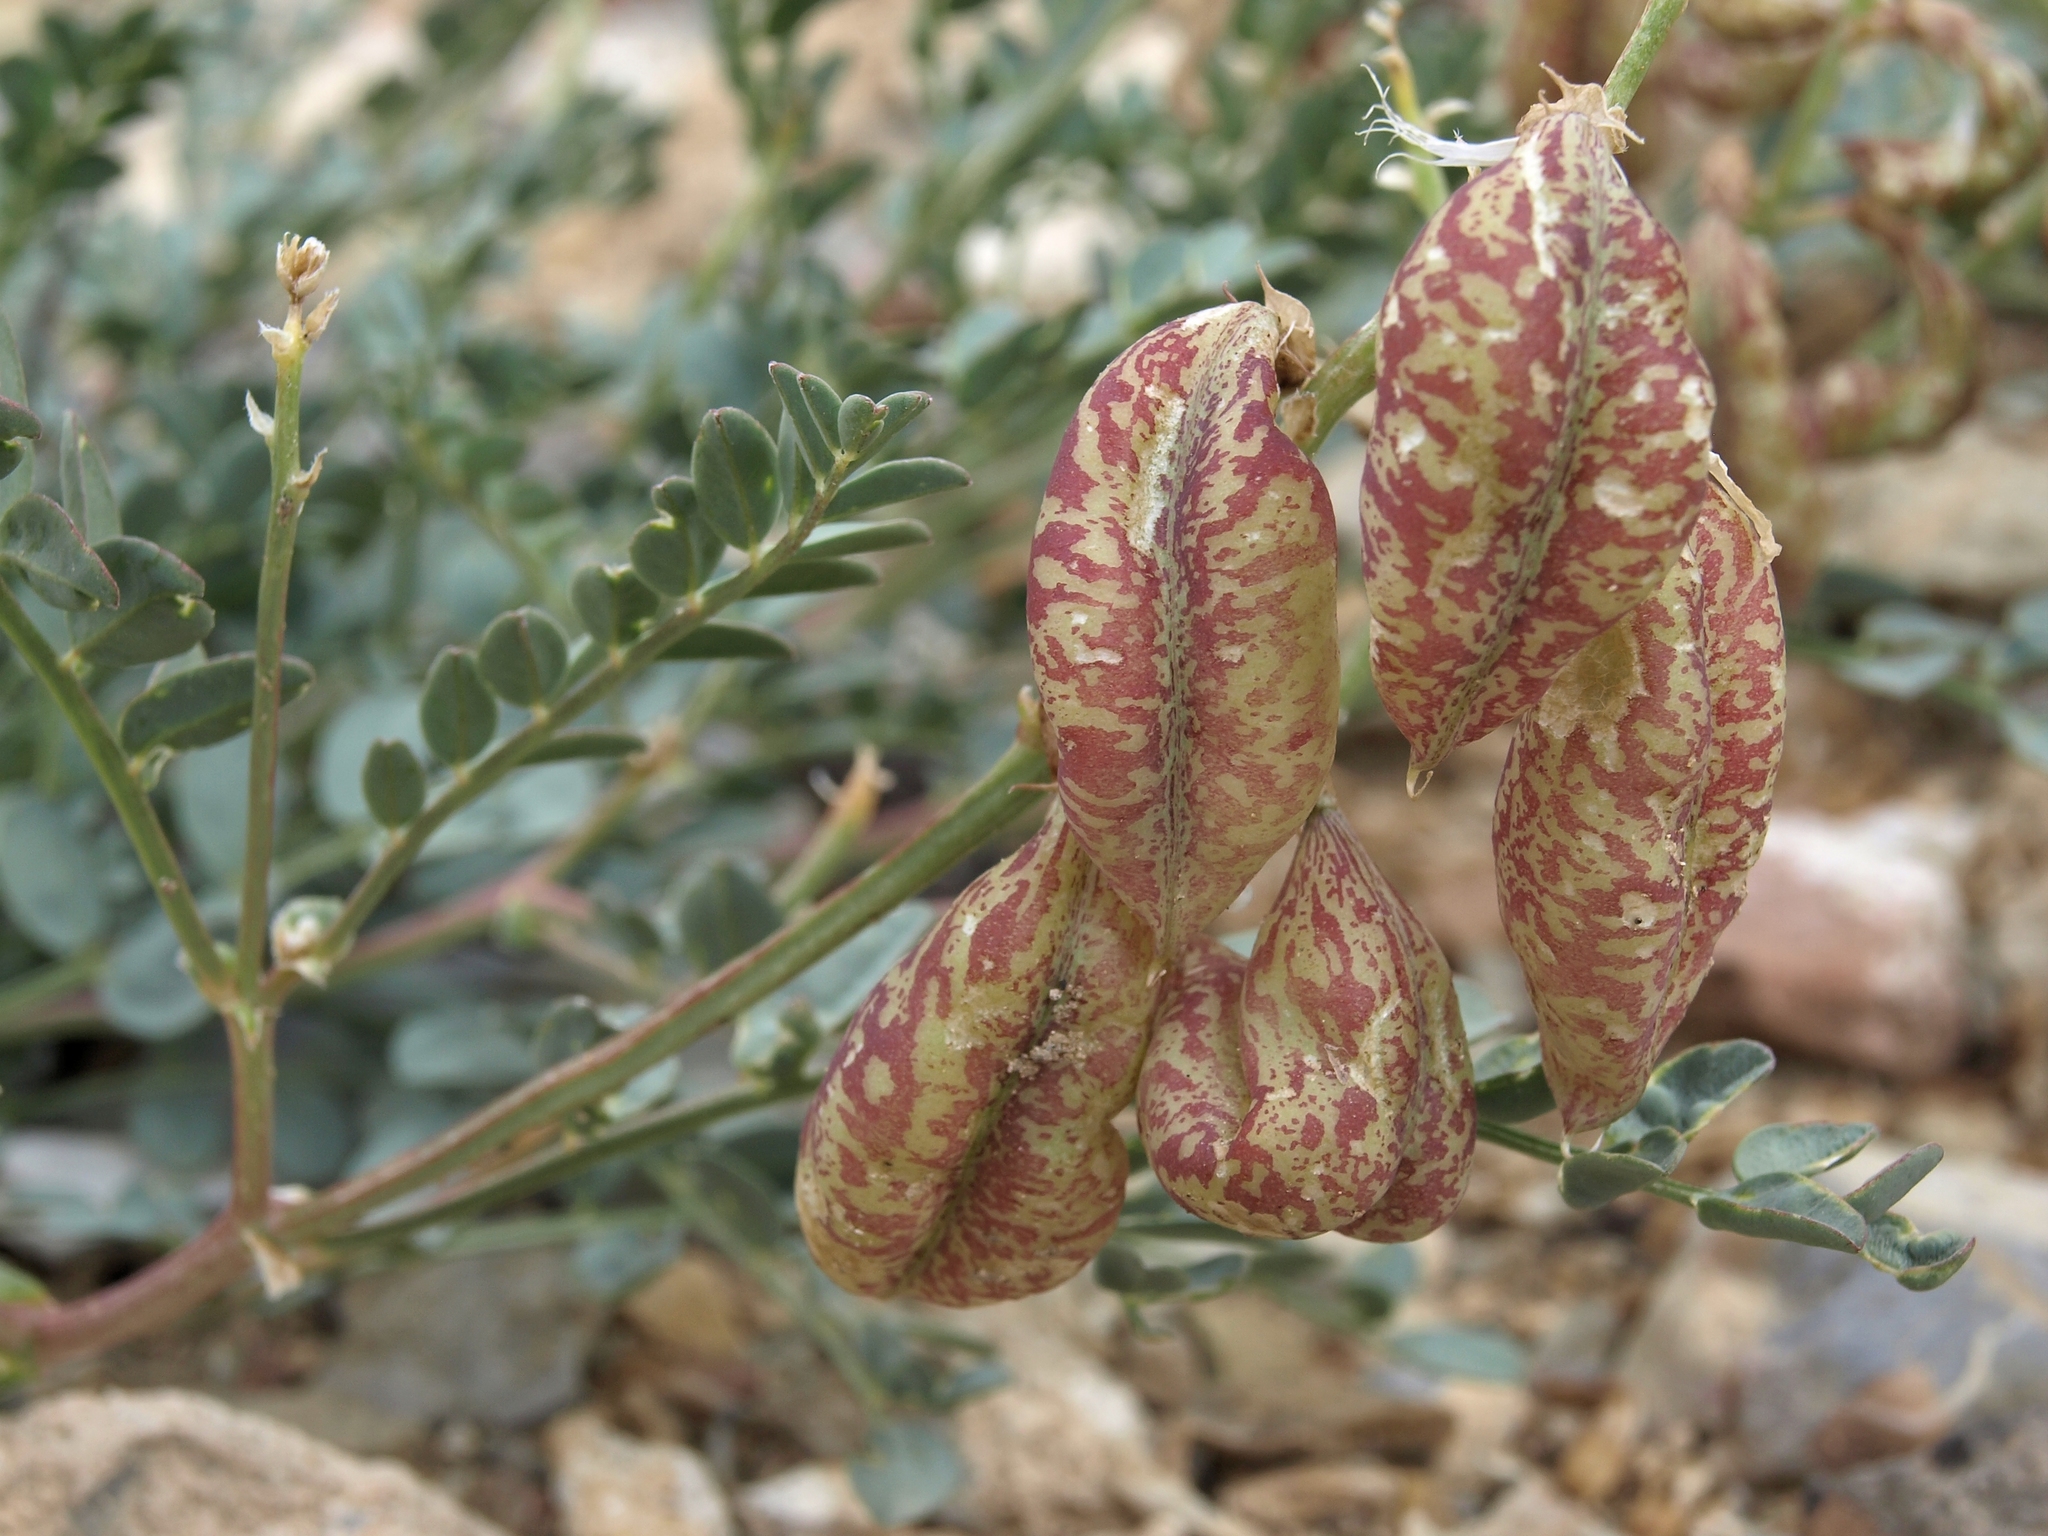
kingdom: Plantae
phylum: Tracheophyta
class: Magnoliopsida
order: Fabales
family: Fabaceae
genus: Astragalus
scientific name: Astragalus oophorus
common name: Egg milkvetch
